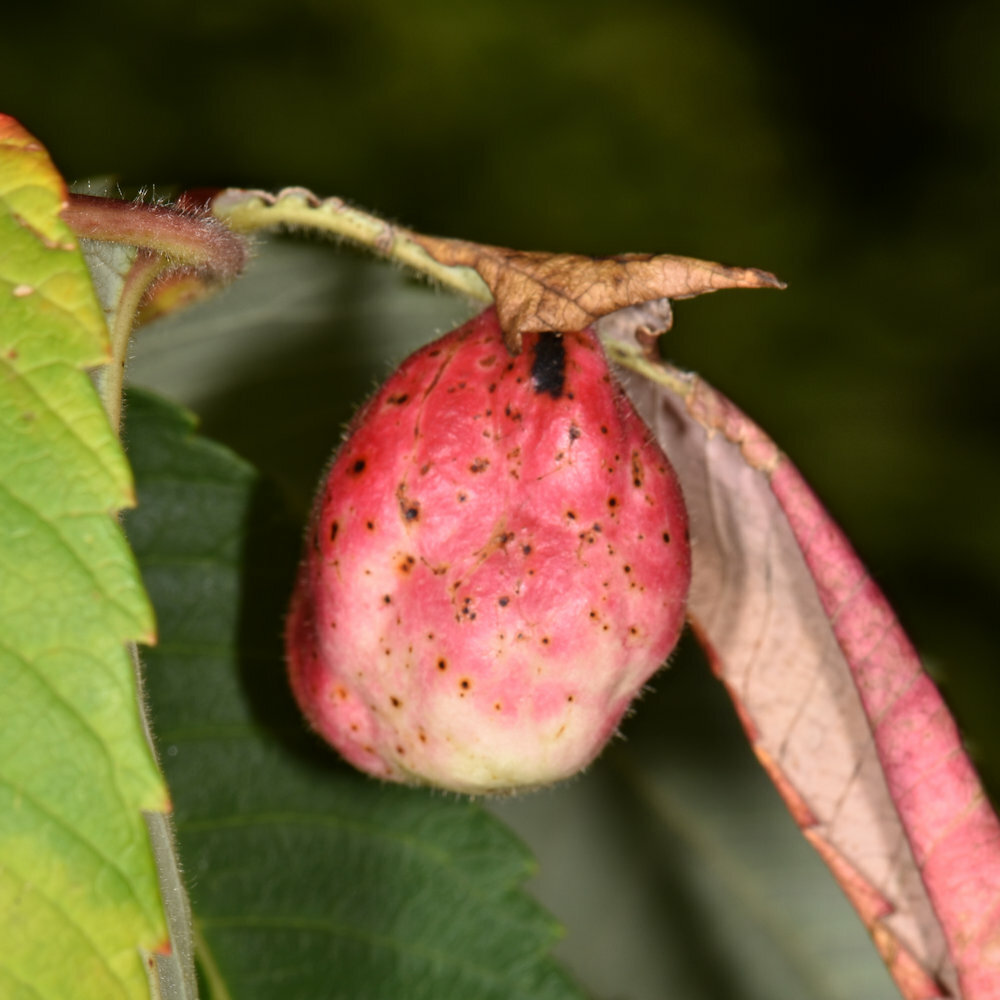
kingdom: Animalia
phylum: Arthropoda
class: Insecta
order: Hemiptera
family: Aphididae
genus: Melaphis
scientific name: Melaphis rhois
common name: Sumac gall aphid
